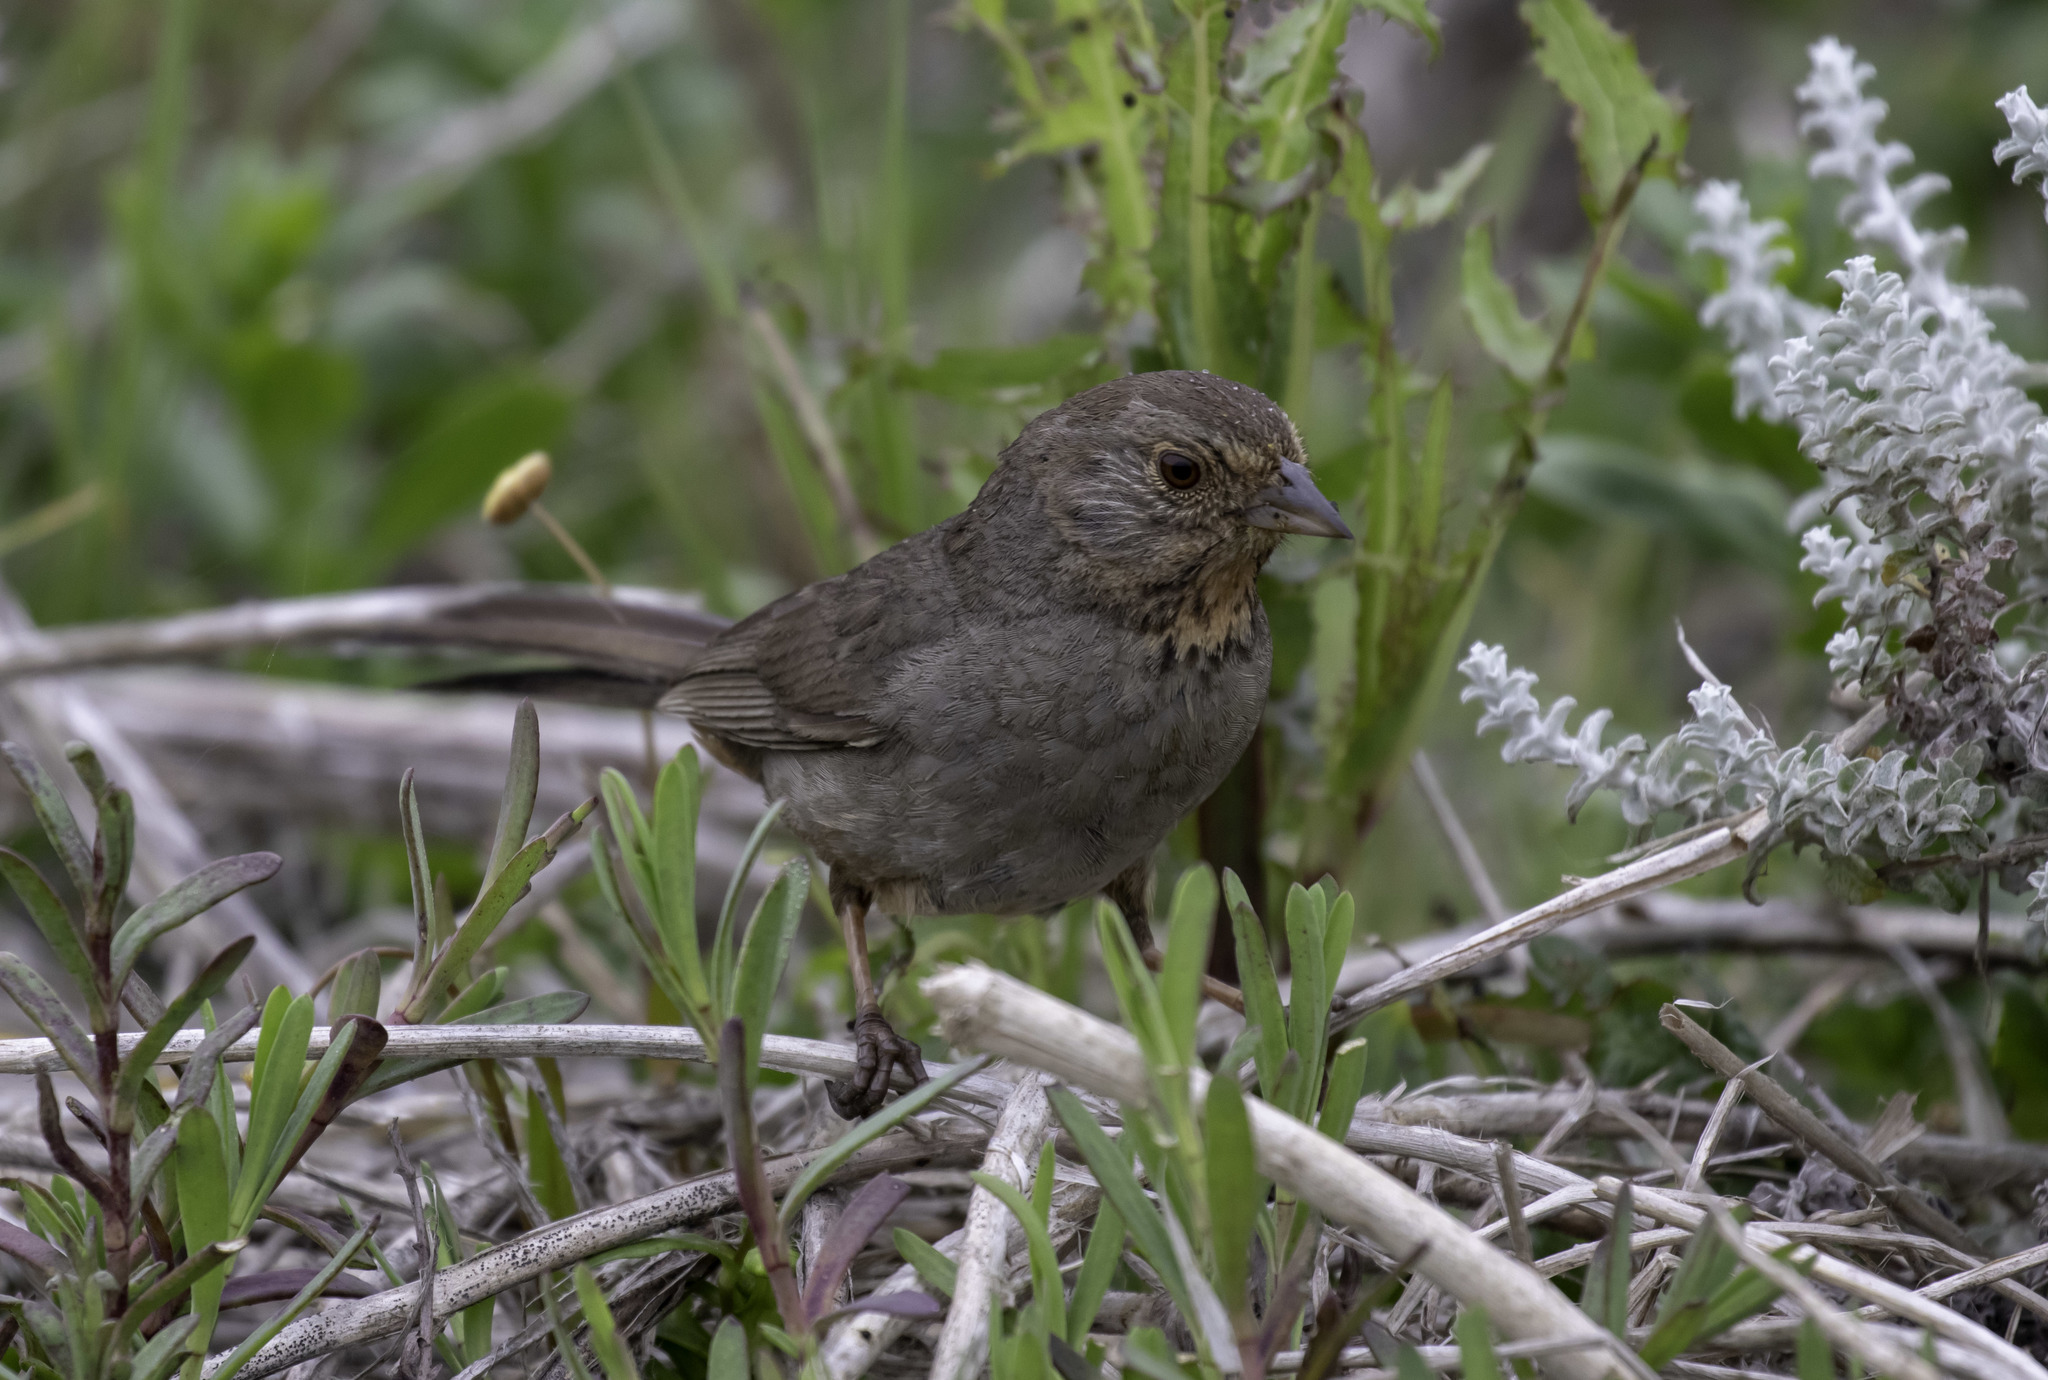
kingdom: Animalia
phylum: Chordata
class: Aves
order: Passeriformes
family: Passerellidae
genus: Melozone
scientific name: Melozone crissalis
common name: California towhee
